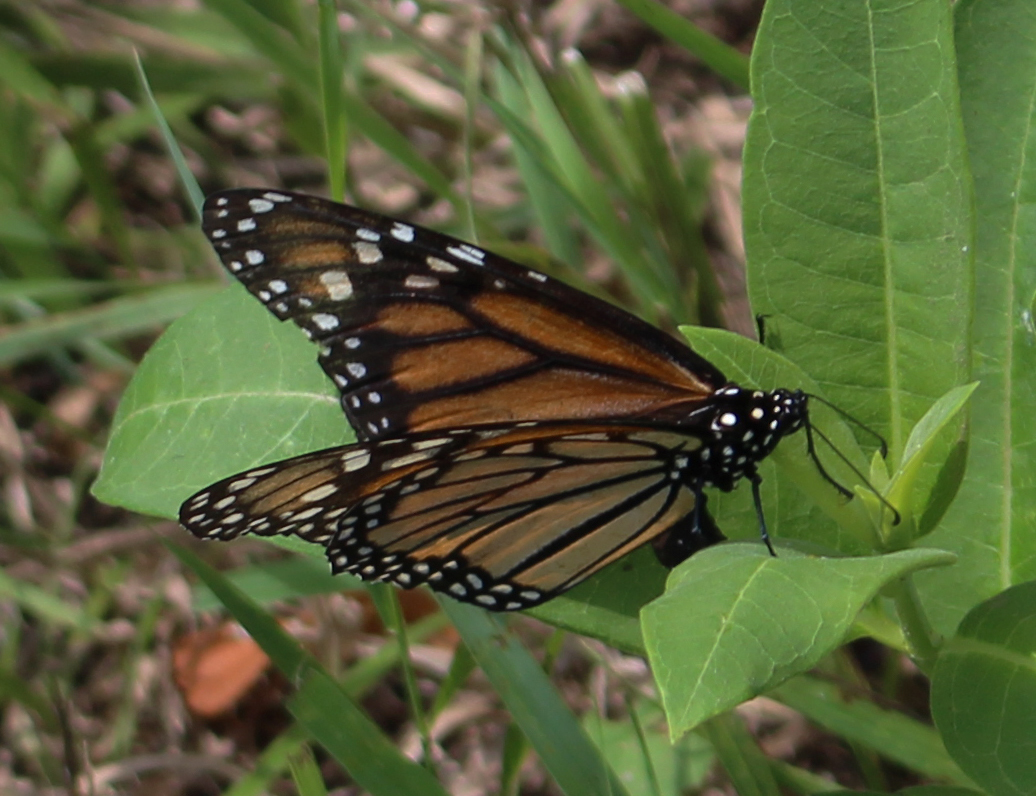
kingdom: Animalia
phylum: Arthropoda
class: Insecta
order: Lepidoptera
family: Nymphalidae
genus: Danaus
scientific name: Danaus plexippus
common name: Monarch
